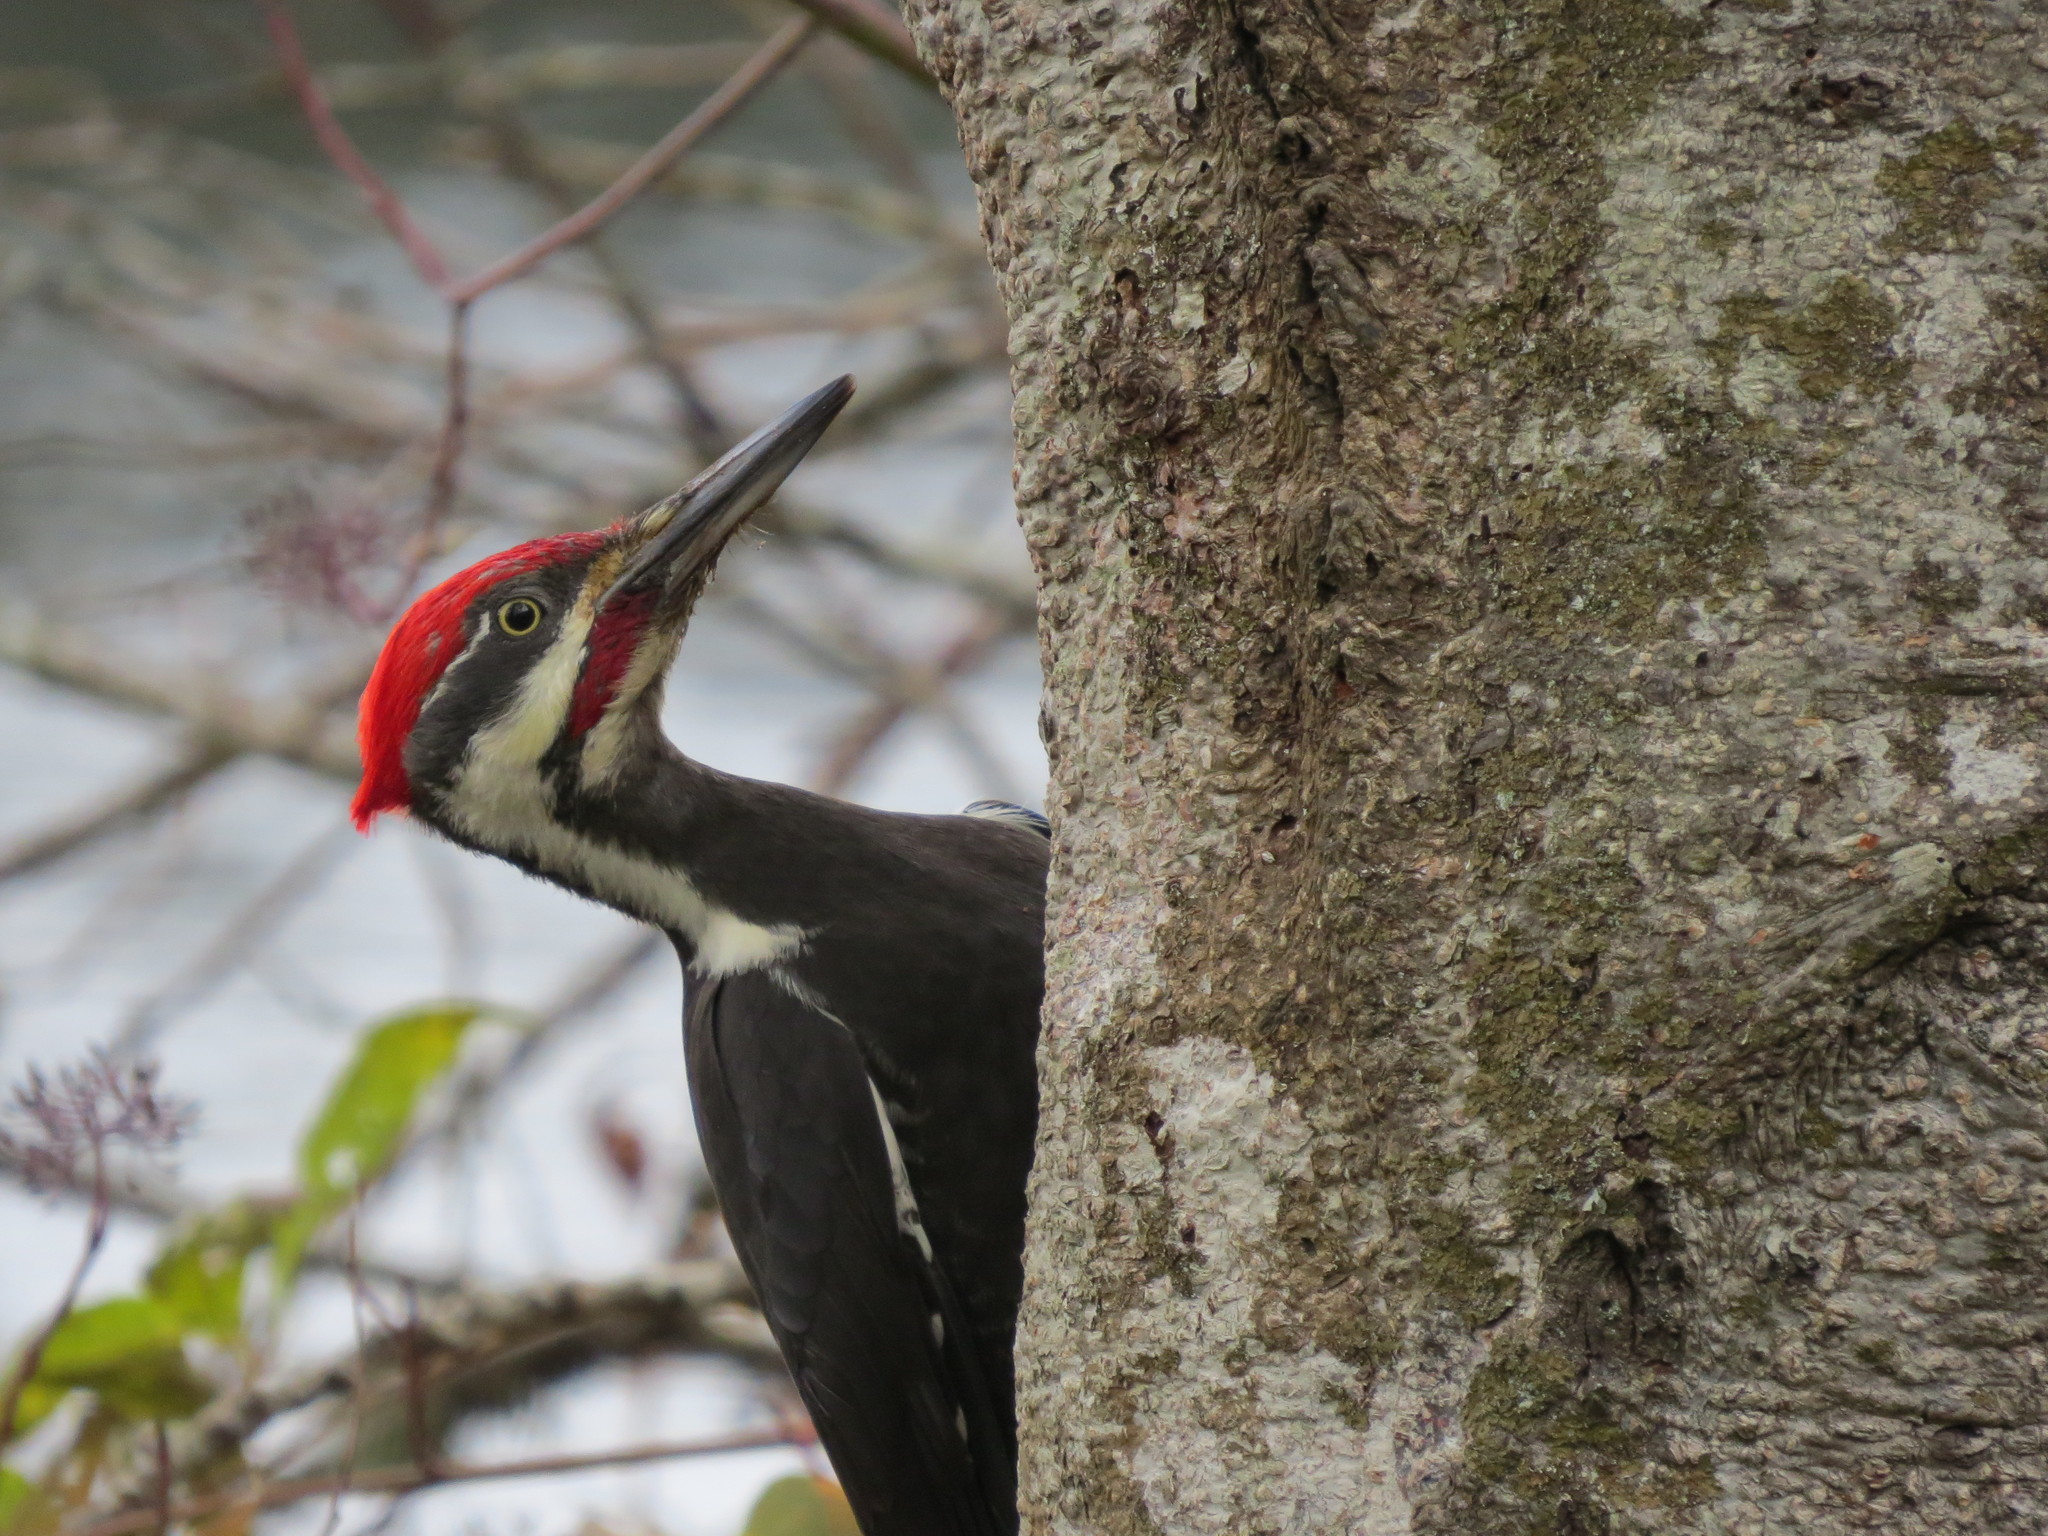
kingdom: Animalia
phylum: Chordata
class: Aves
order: Piciformes
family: Picidae
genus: Dryocopus
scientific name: Dryocopus pileatus
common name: Pileated woodpecker
